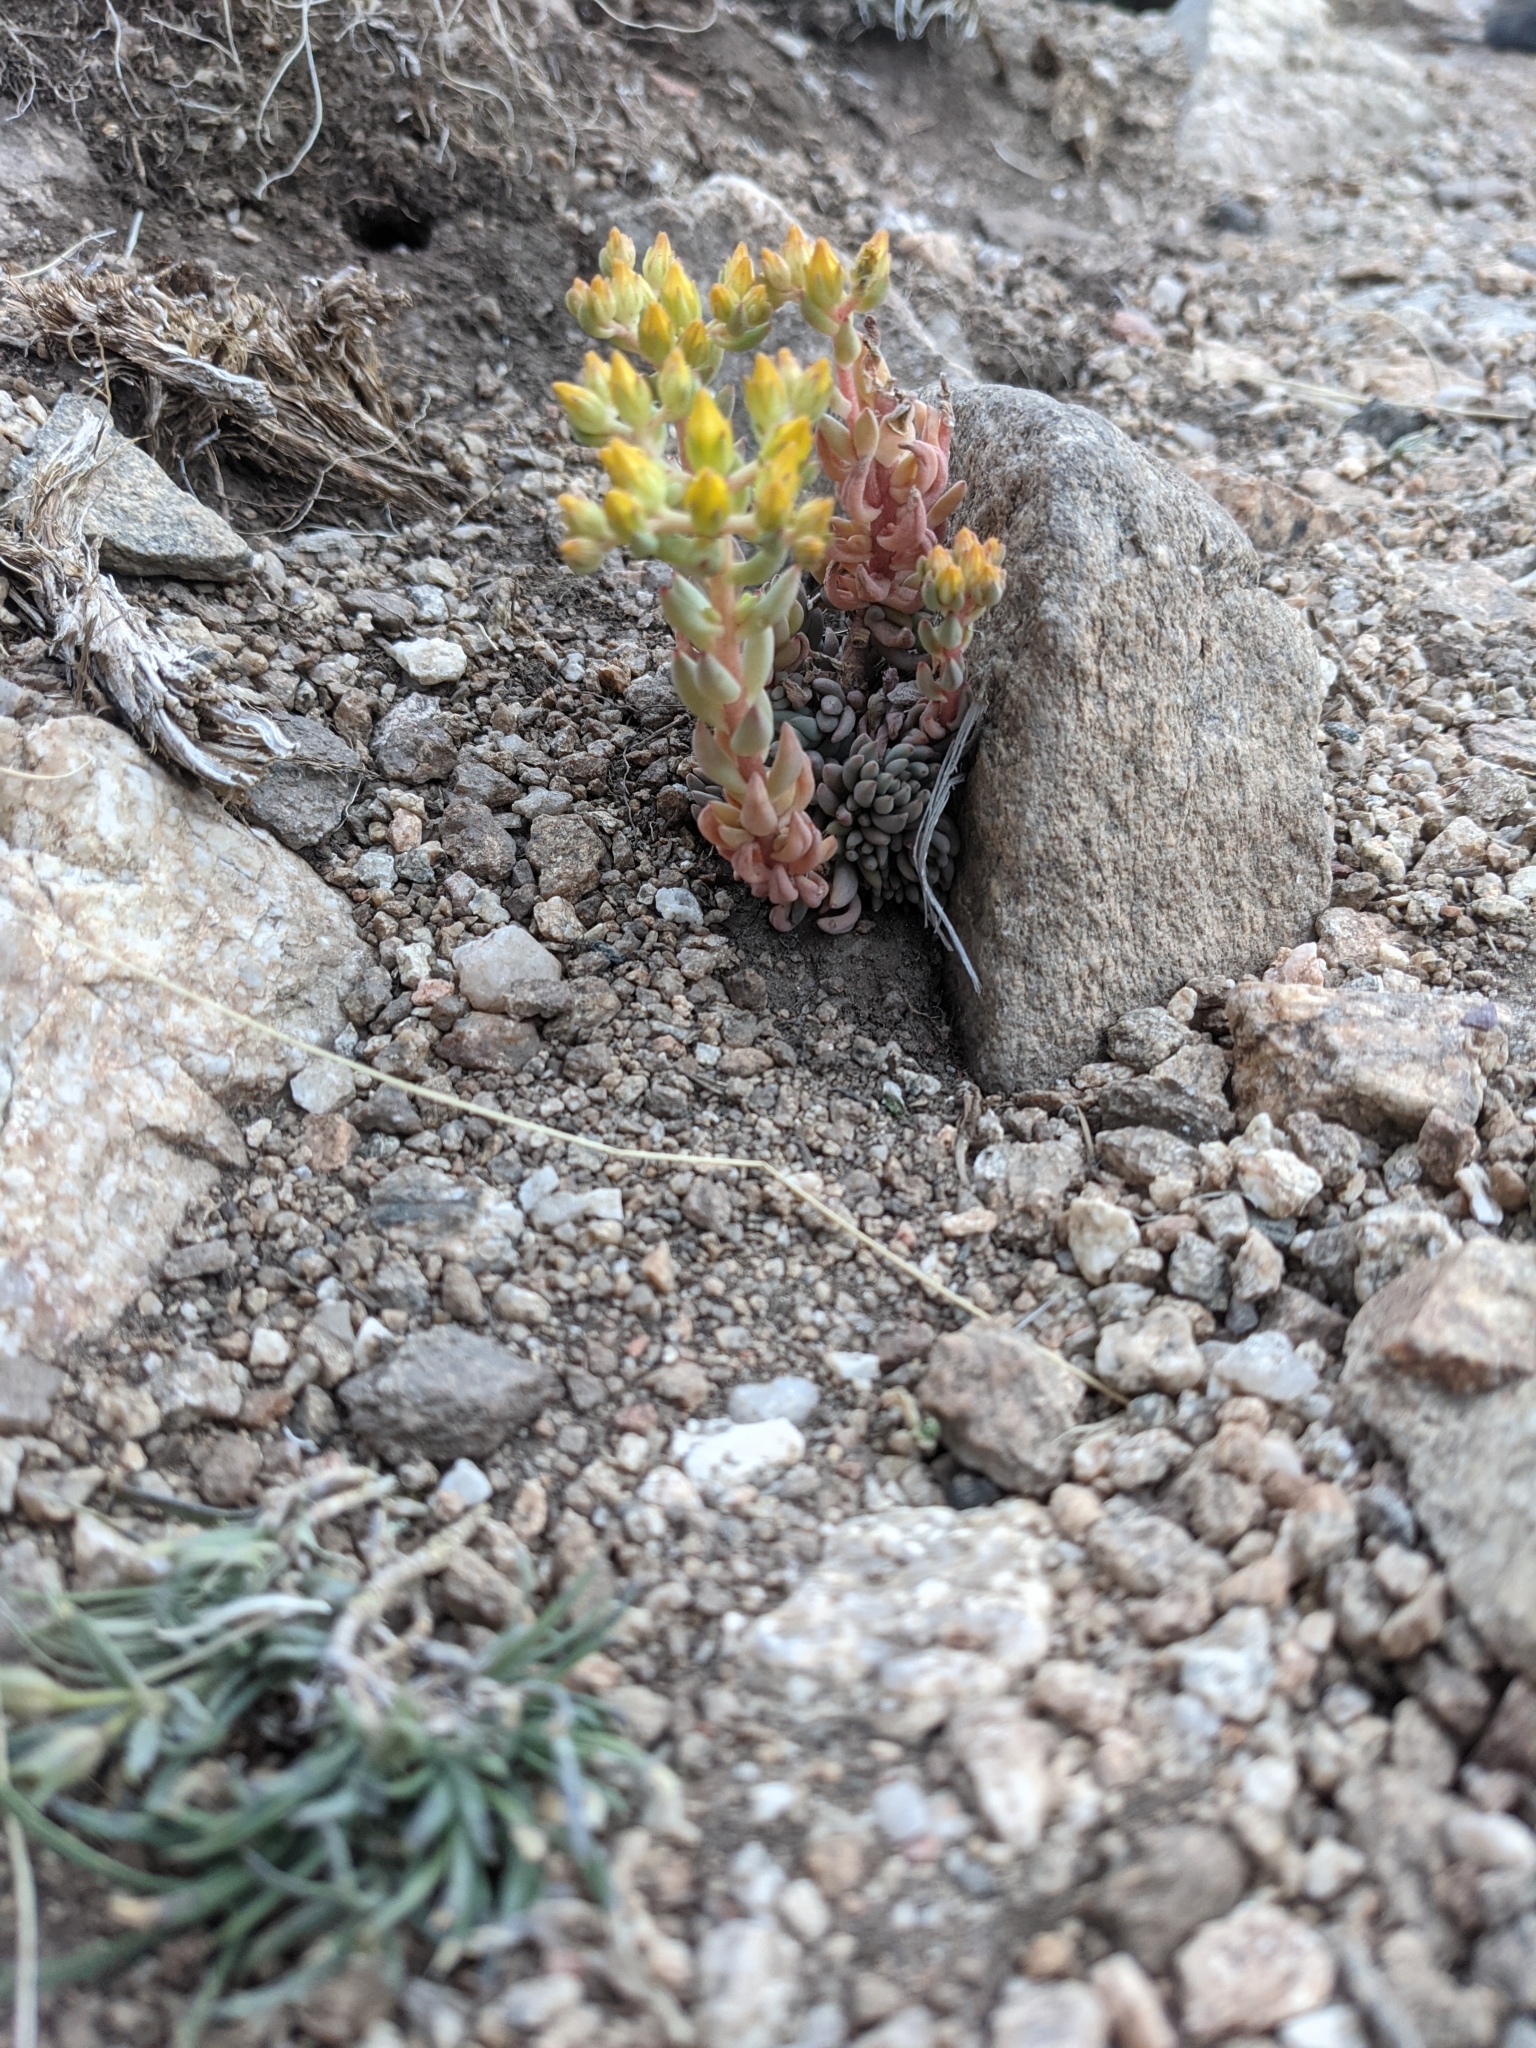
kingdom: Plantae
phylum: Tracheophyta
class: Magnoliopsida
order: Saxifragales
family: Crassulaceae
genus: Sedum
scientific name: Sedum lanceolatum
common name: Common stonecrop
